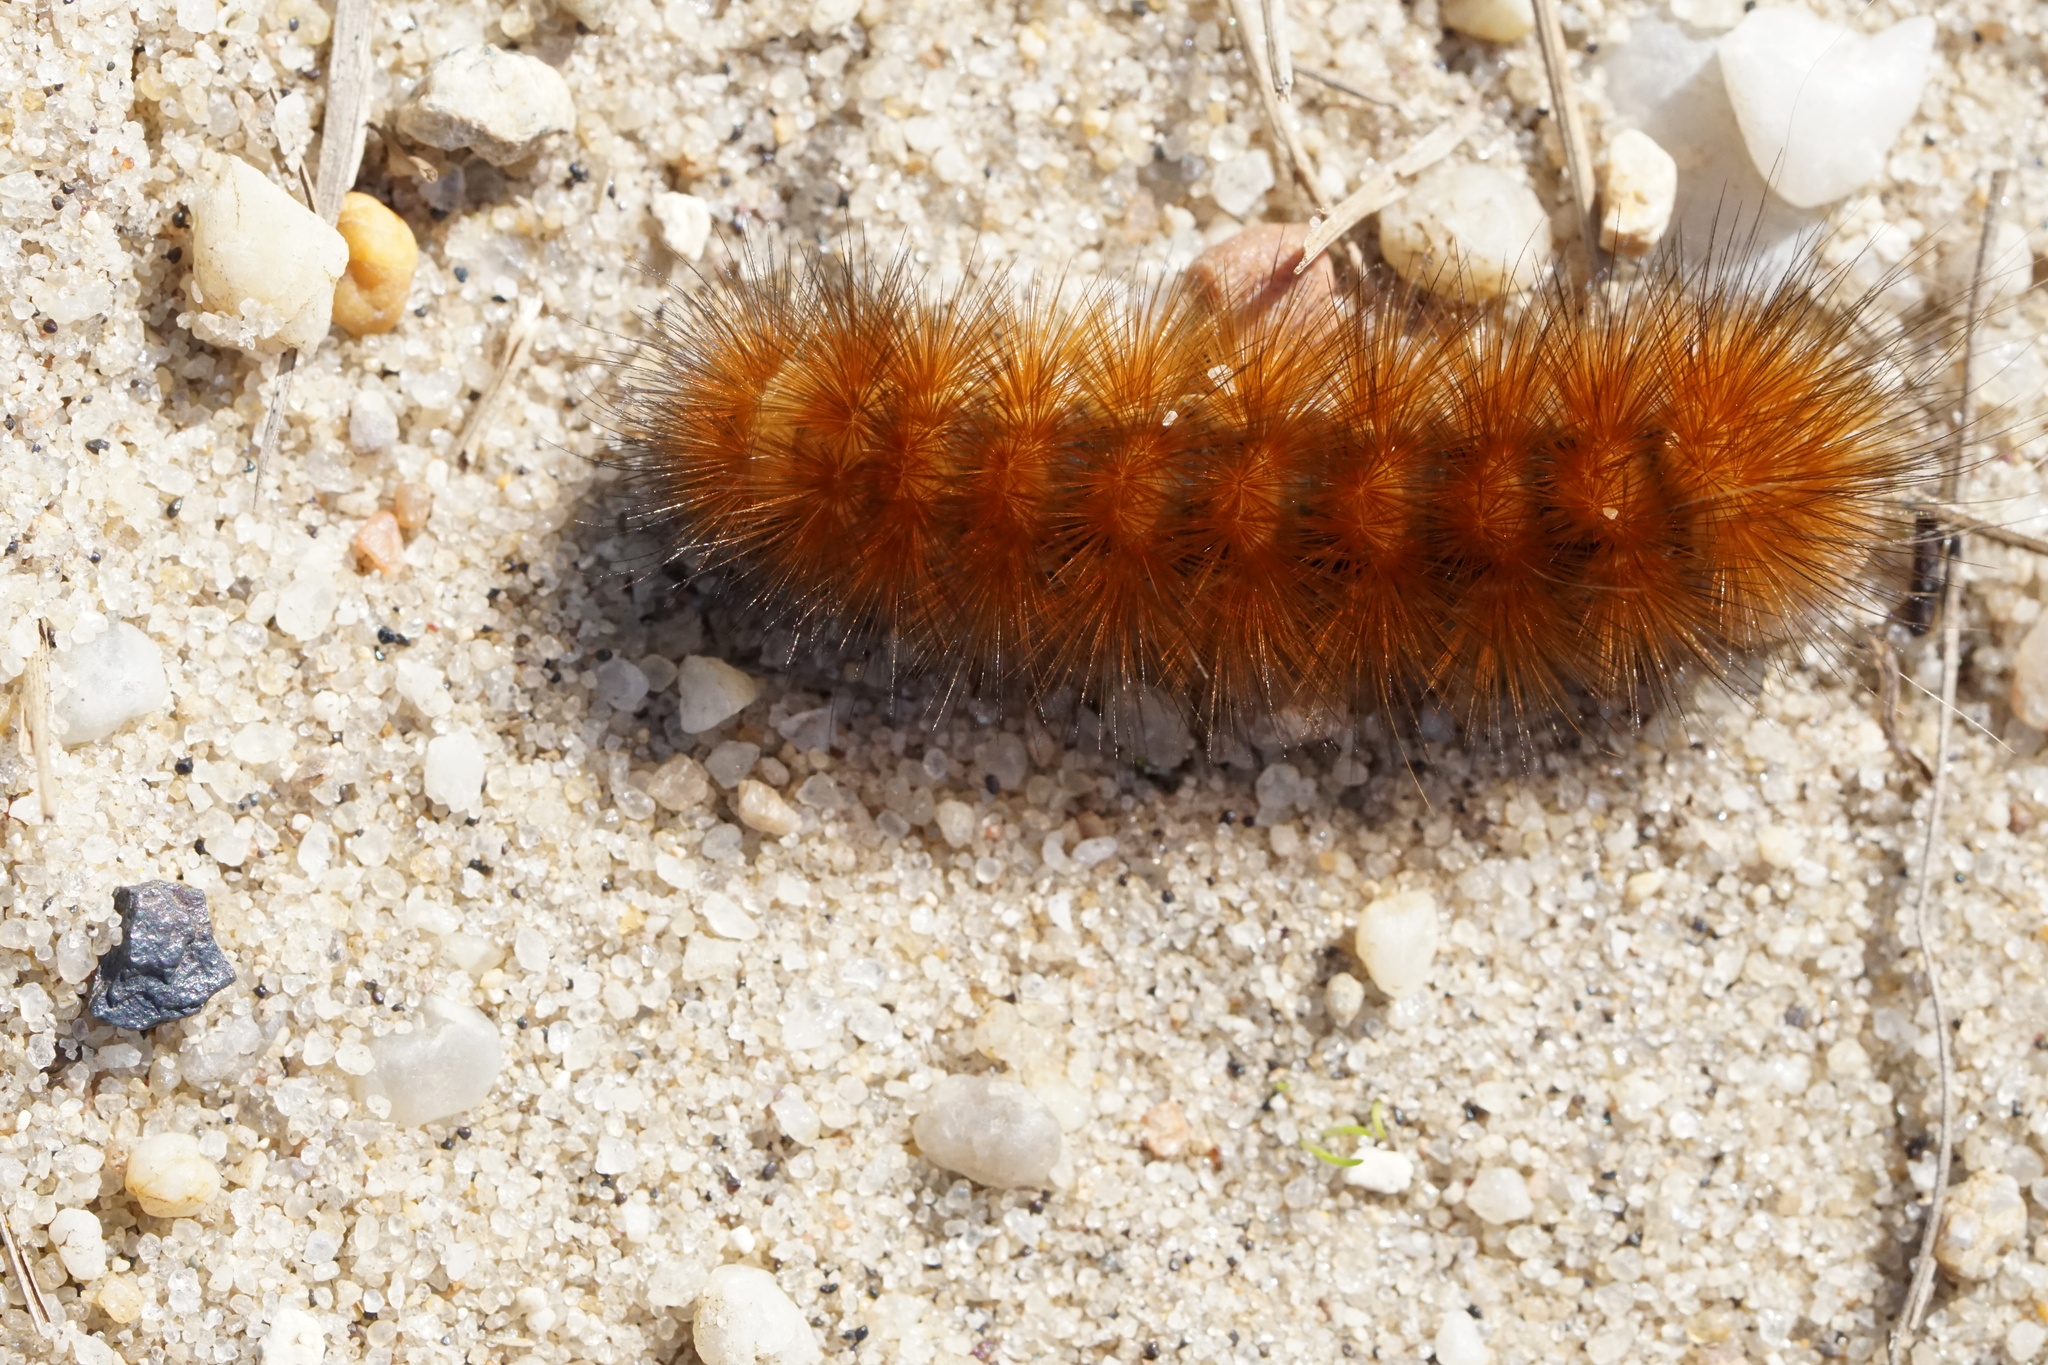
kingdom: Animalia
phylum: Arthropoda
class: Insecta
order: Lepidoptera
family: Erebidae
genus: Estigmene
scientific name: Estigmene acrea
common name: Salt marsh moth
